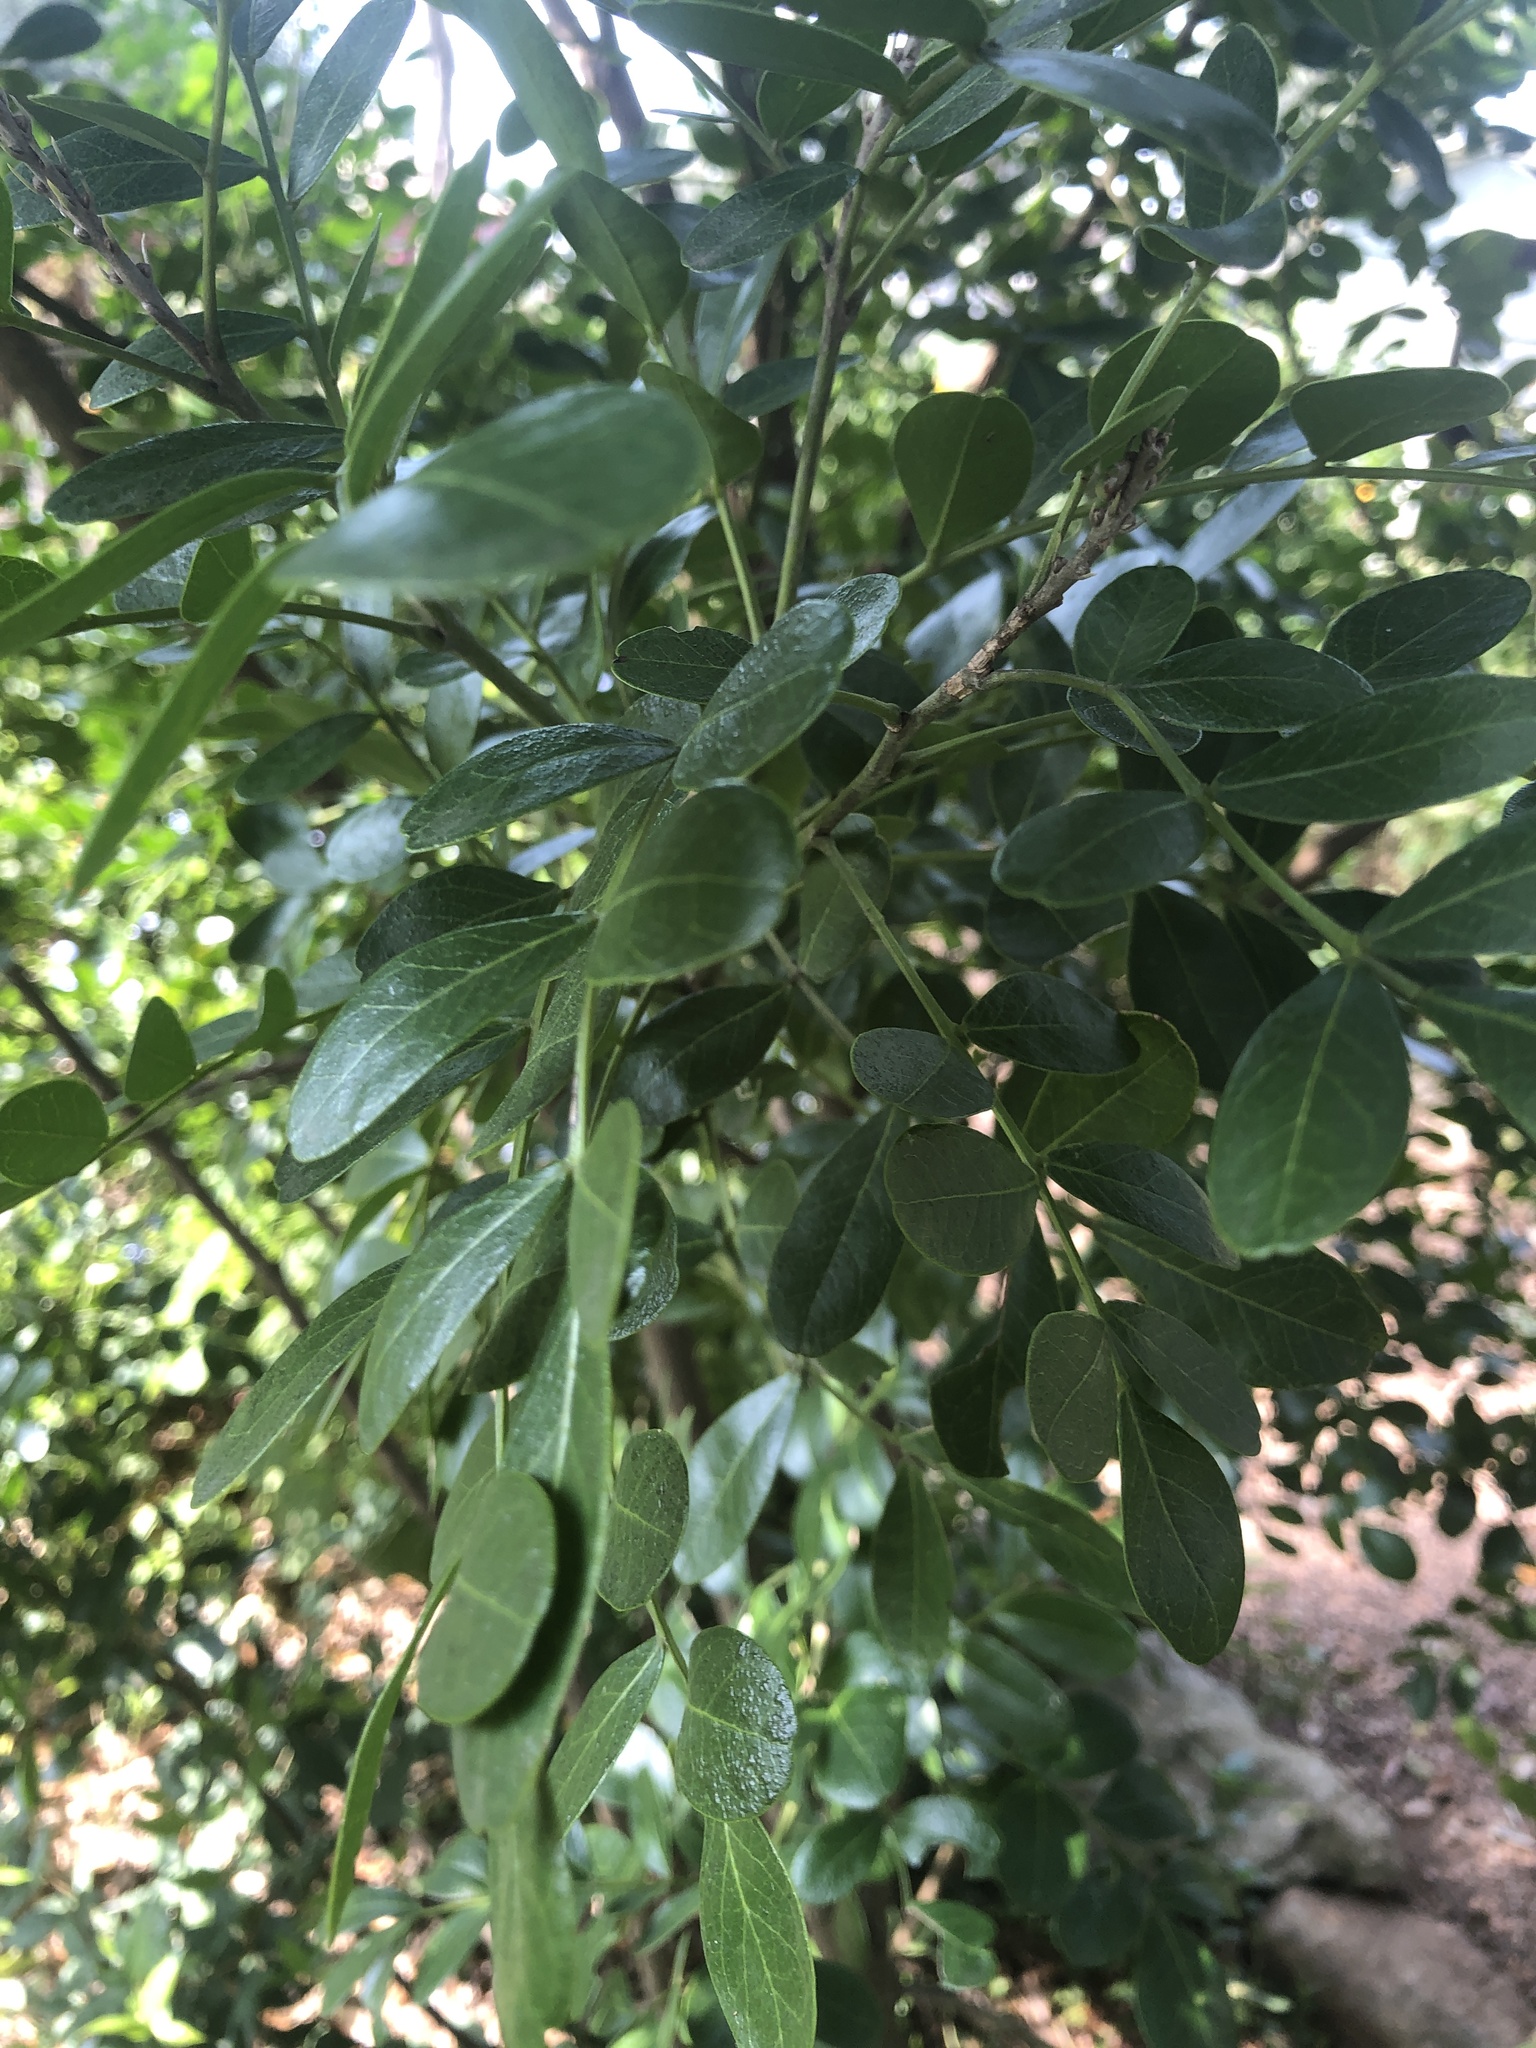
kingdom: Plantae
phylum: Tracheophyta
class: Magnoliopsida
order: Fabales
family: Fabaceae
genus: Dermatophyllum
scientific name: Dermatophyllum secundiflorum
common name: Texas-mountain-laurel
